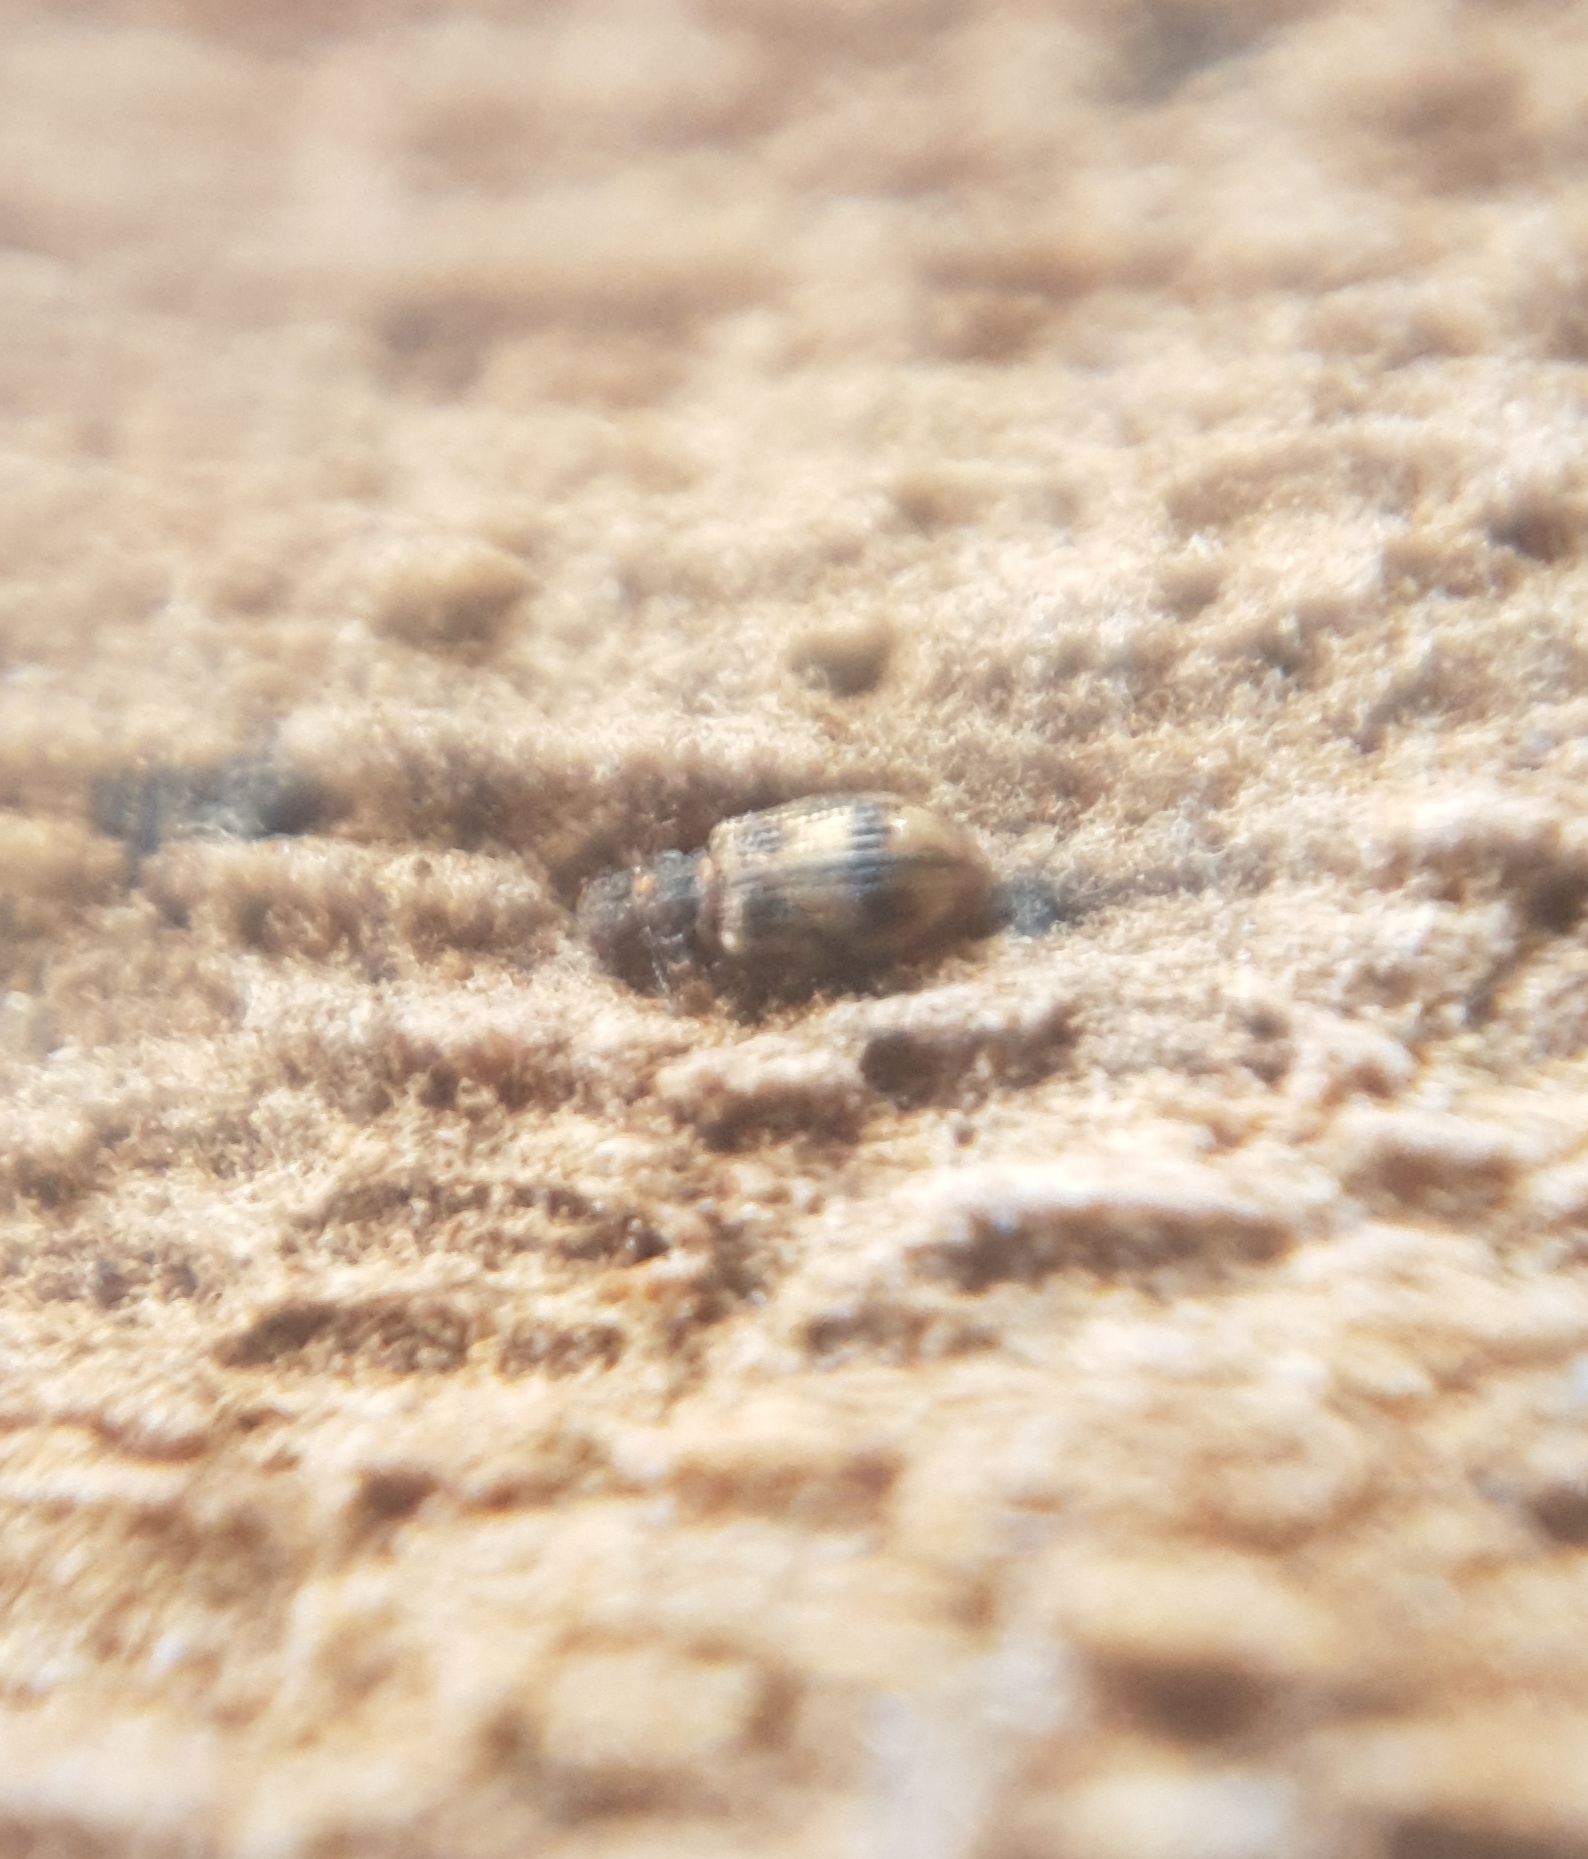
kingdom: Animalia
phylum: Arthropoda
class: Insecta
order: Coleoptera
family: Latridiidae
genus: Cartodere
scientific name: Cartodere bifasciata
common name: Plaster beetle
